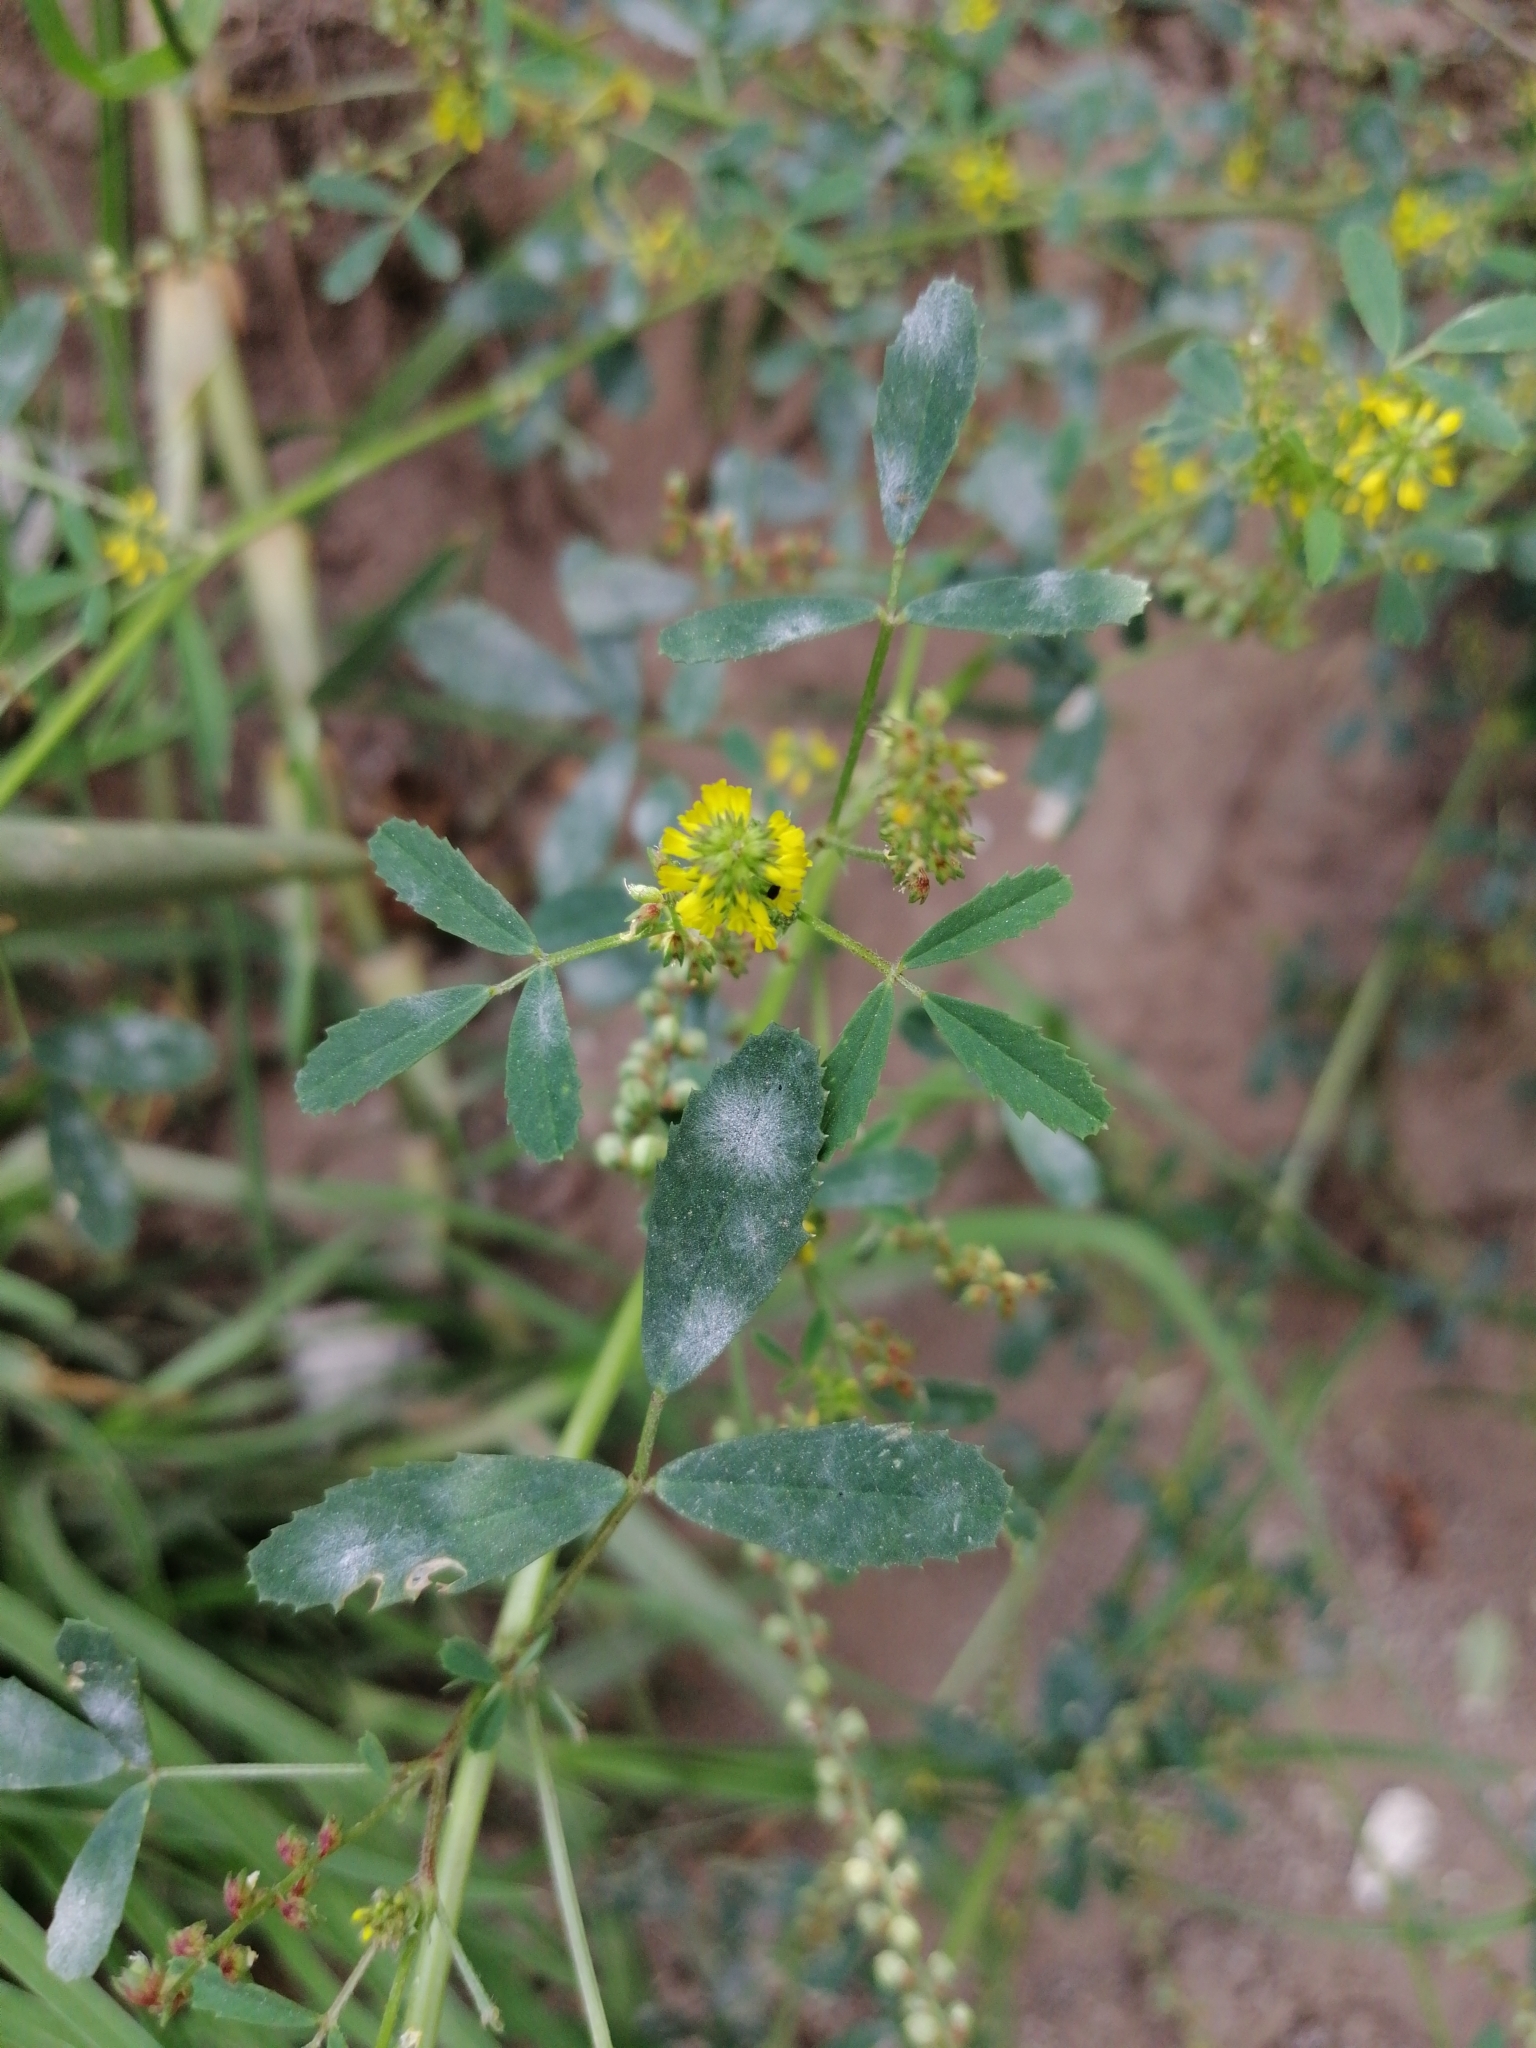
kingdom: Plantae
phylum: Tracheophyta
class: Magnoliopsida
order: Fabales
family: Fabaceae
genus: Melilotus
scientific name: Melilotus indicus
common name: Small melilot
